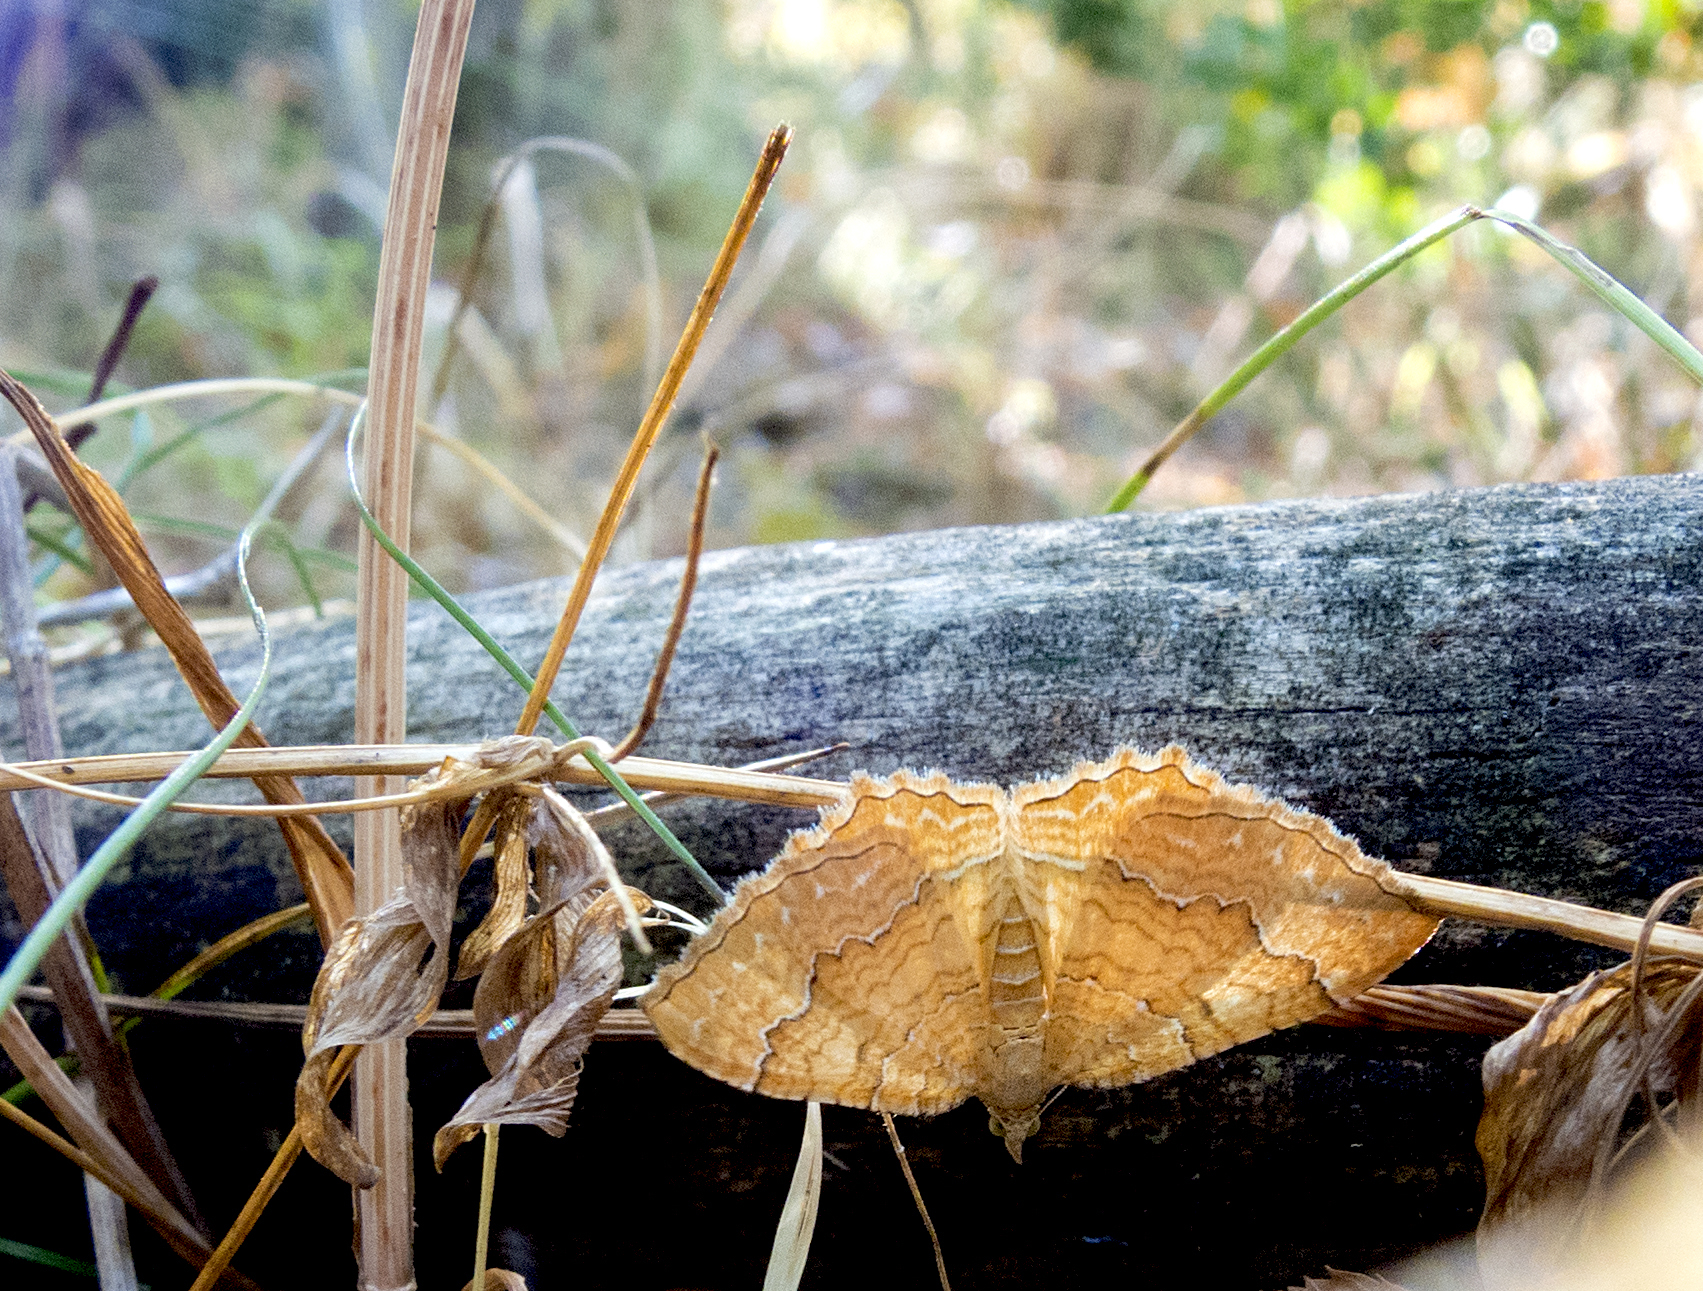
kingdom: Animalia
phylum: Arthropoda
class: Insecta
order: Lepidoptera
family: Geometridae
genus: Camptogramma
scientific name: Camptogramma bilineata
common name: Yellow shell
